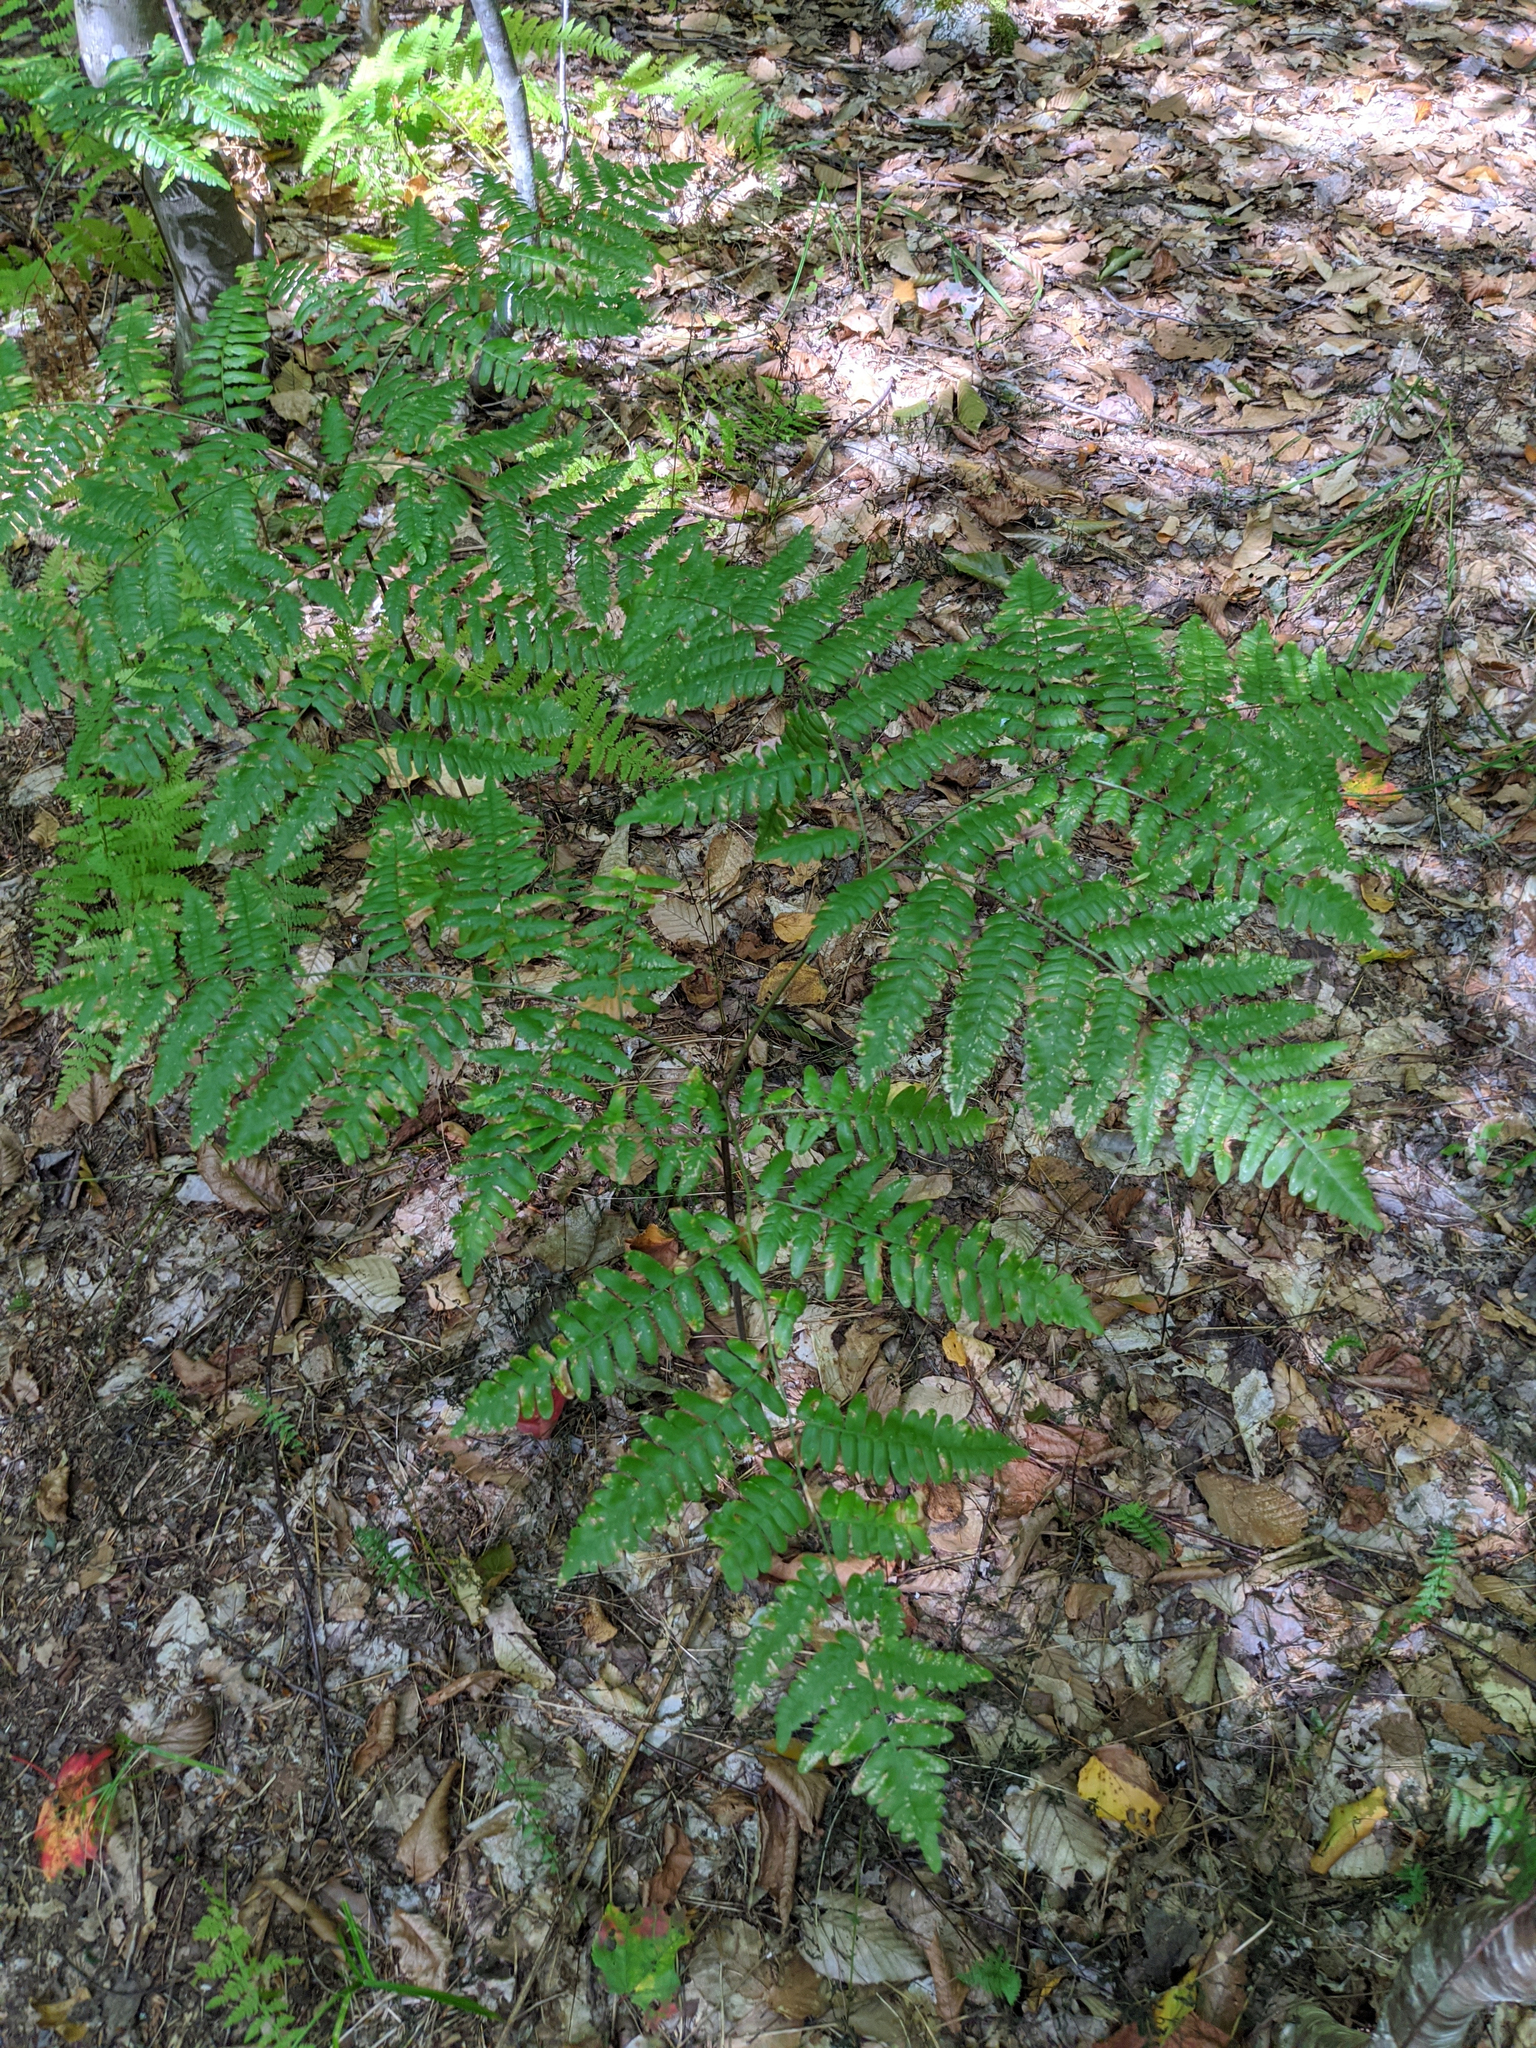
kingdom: Plantae
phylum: Tracheophyta
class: Polypodiopsida
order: Polypodiales
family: Dennstaedtiaceae
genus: Pteridium
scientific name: Pteridium aquilinum
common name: Bracken
